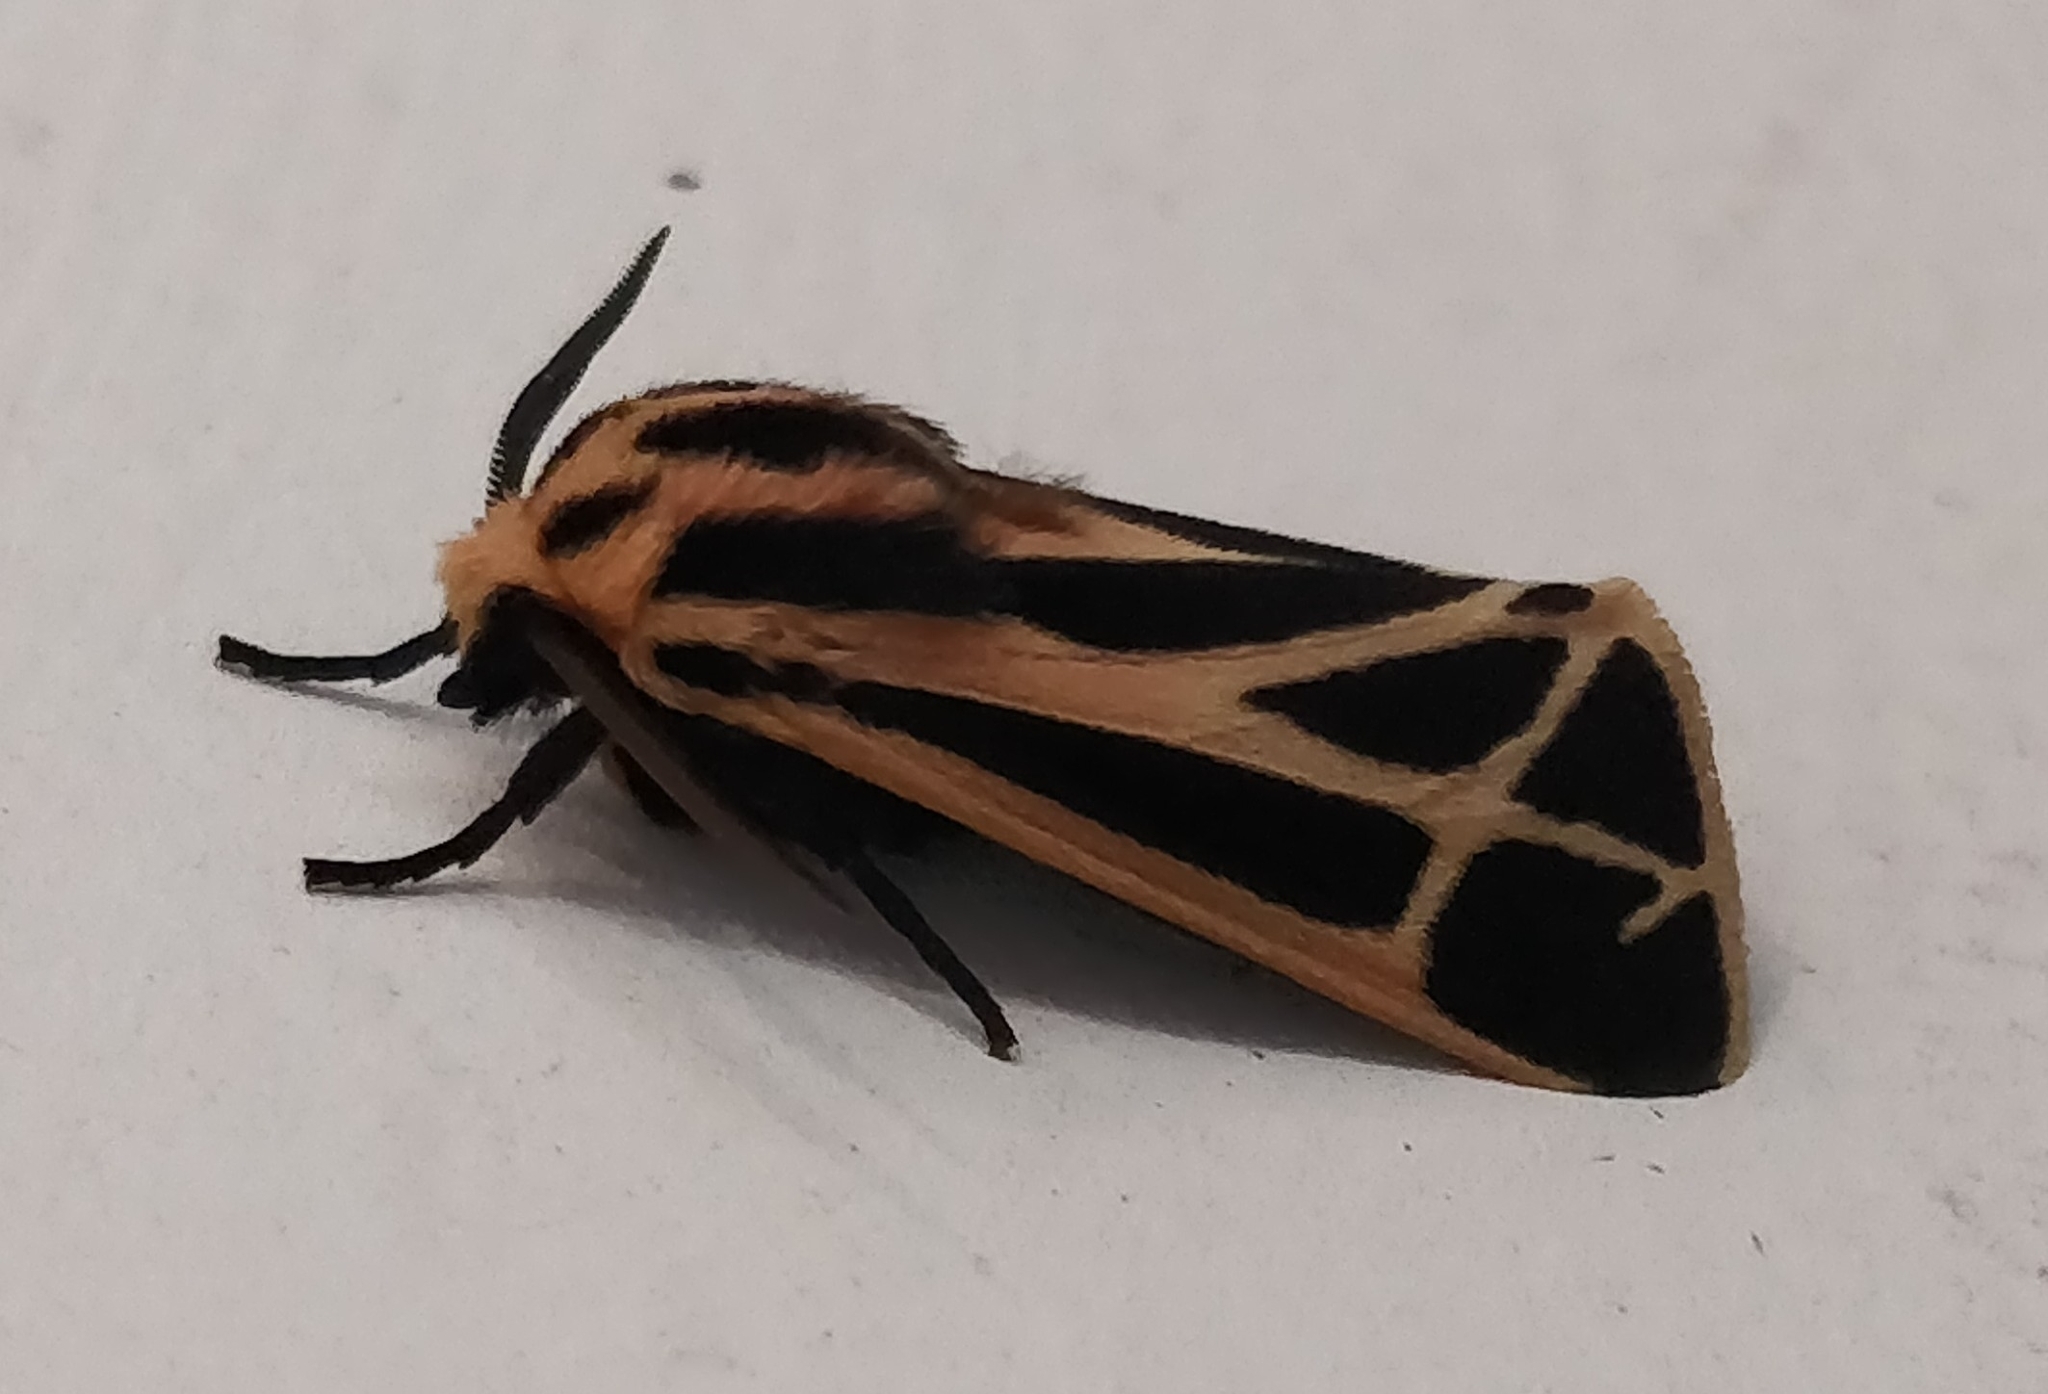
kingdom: Animalia
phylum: Arthropoda
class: Insecta
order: Lepidoptera
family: Erebidae
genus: Apantesis
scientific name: Apantesis phalerata
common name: Harnessed tiger moth
